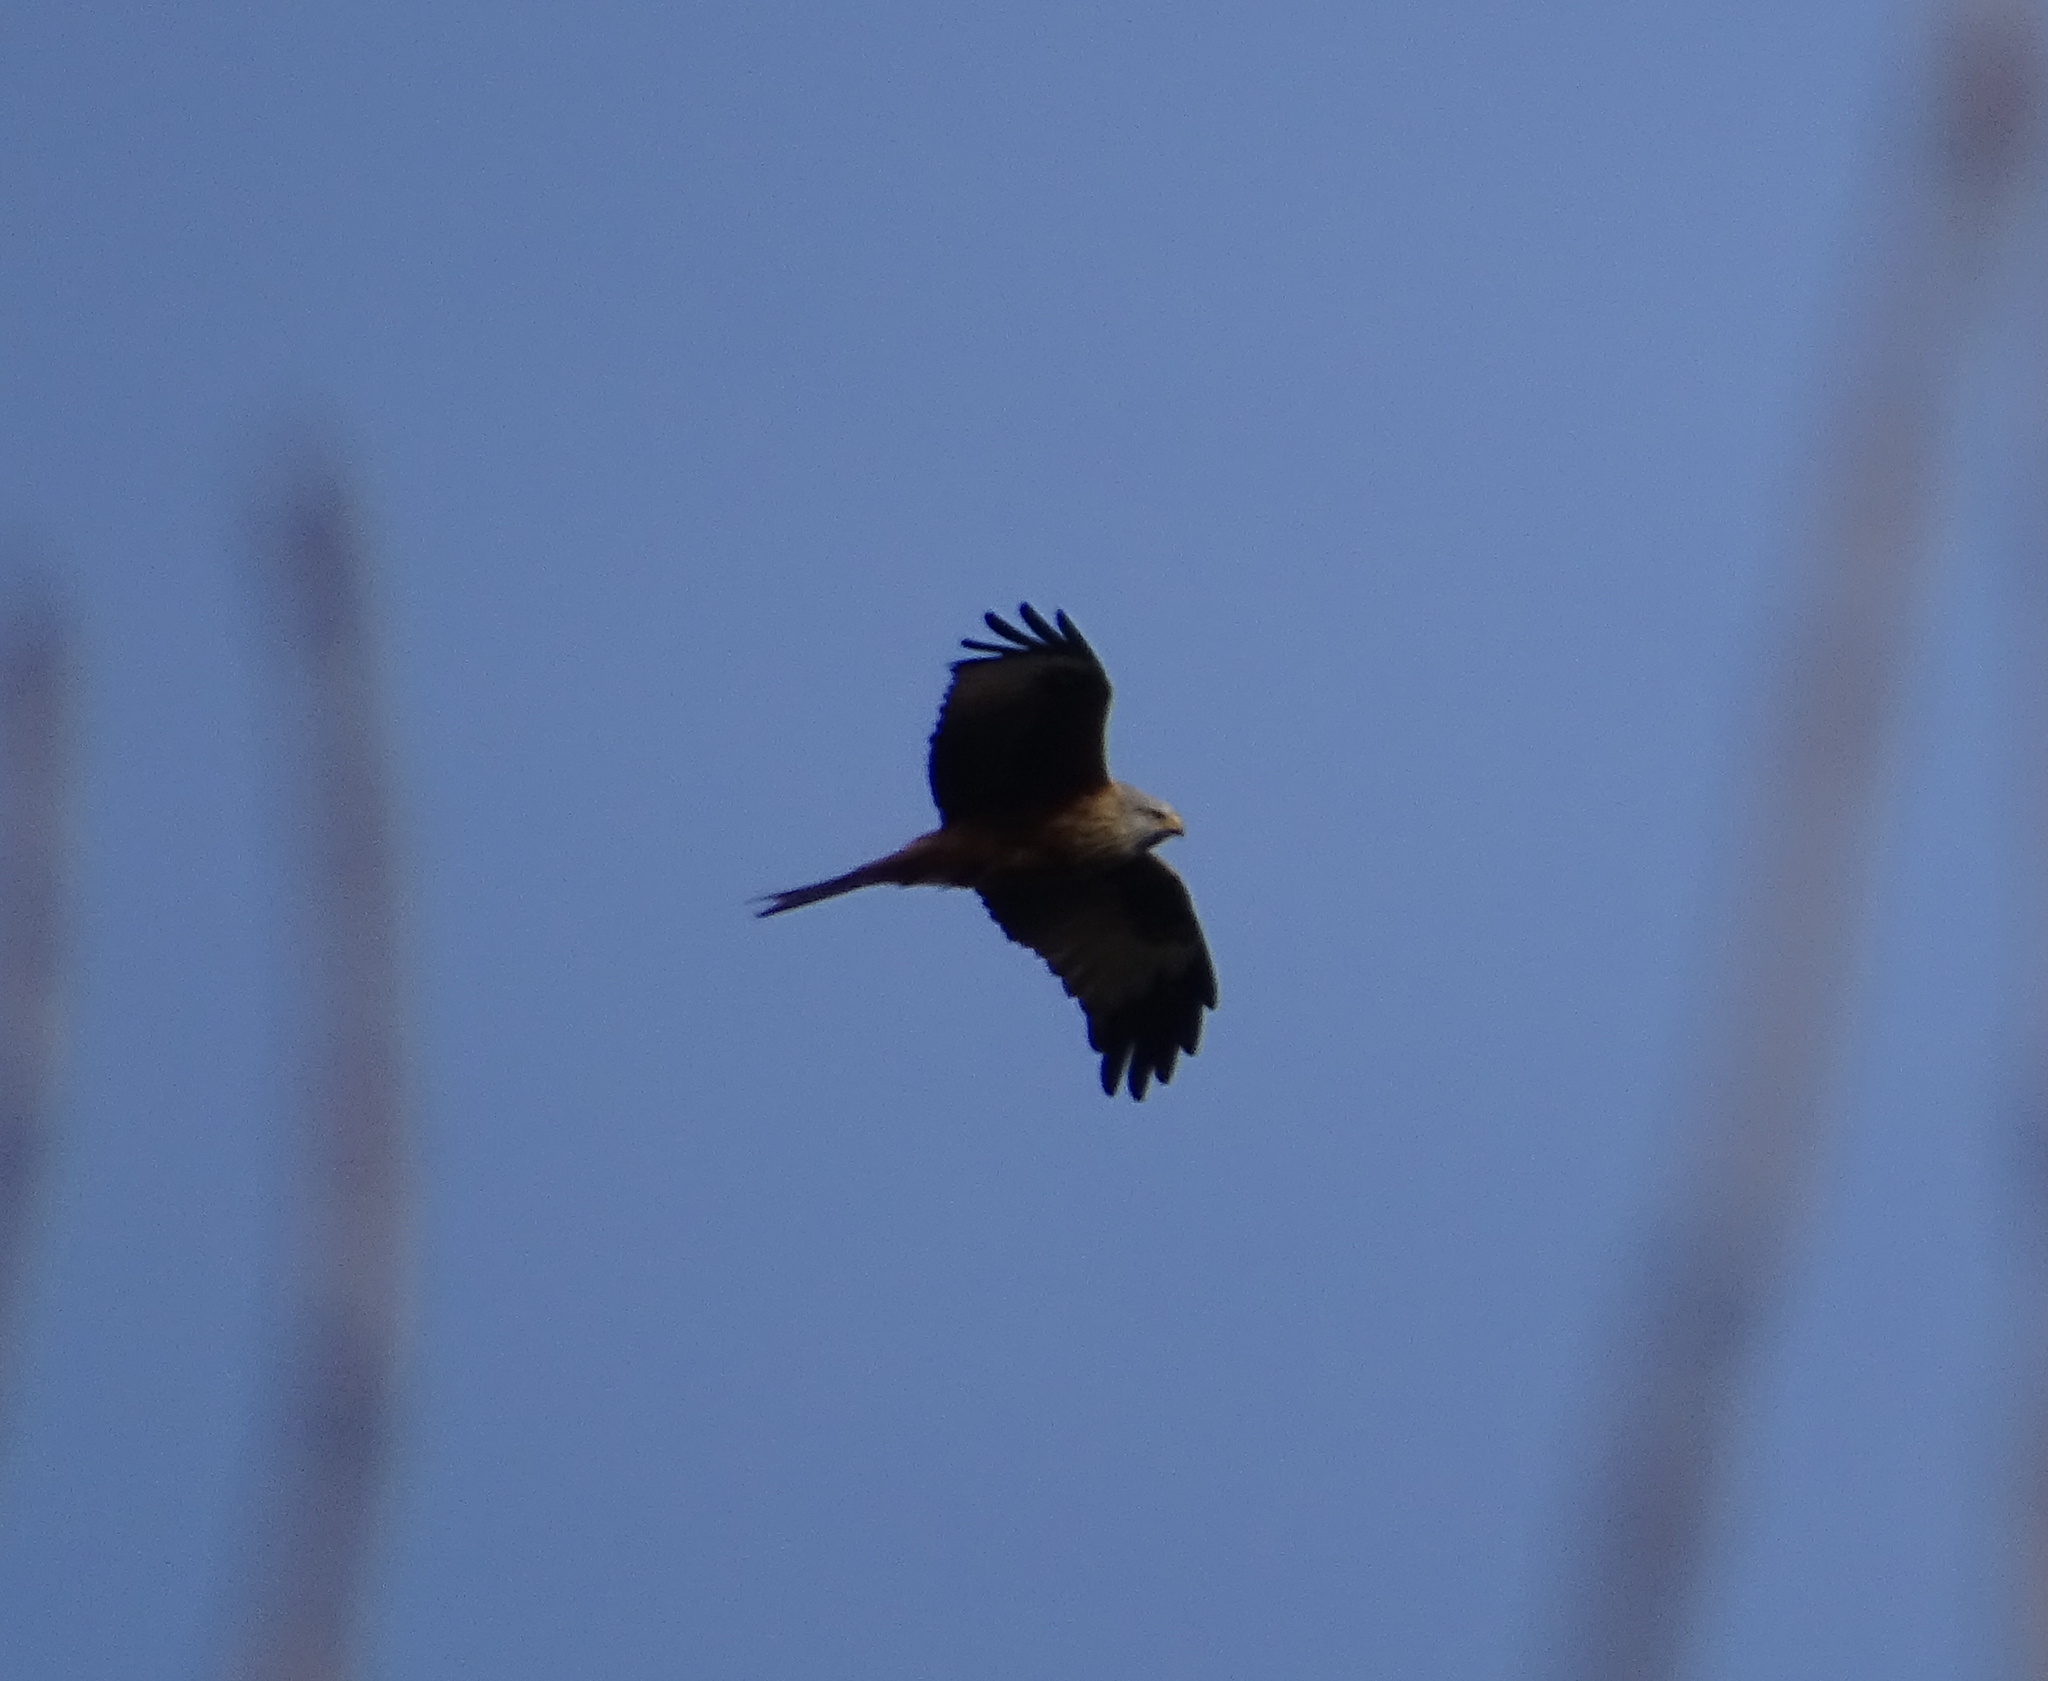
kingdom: Animalia
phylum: Chordata
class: Aves
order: Accipitriformes
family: Accipitridae
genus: Milvus
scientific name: Milvus milvus
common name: Red kite
